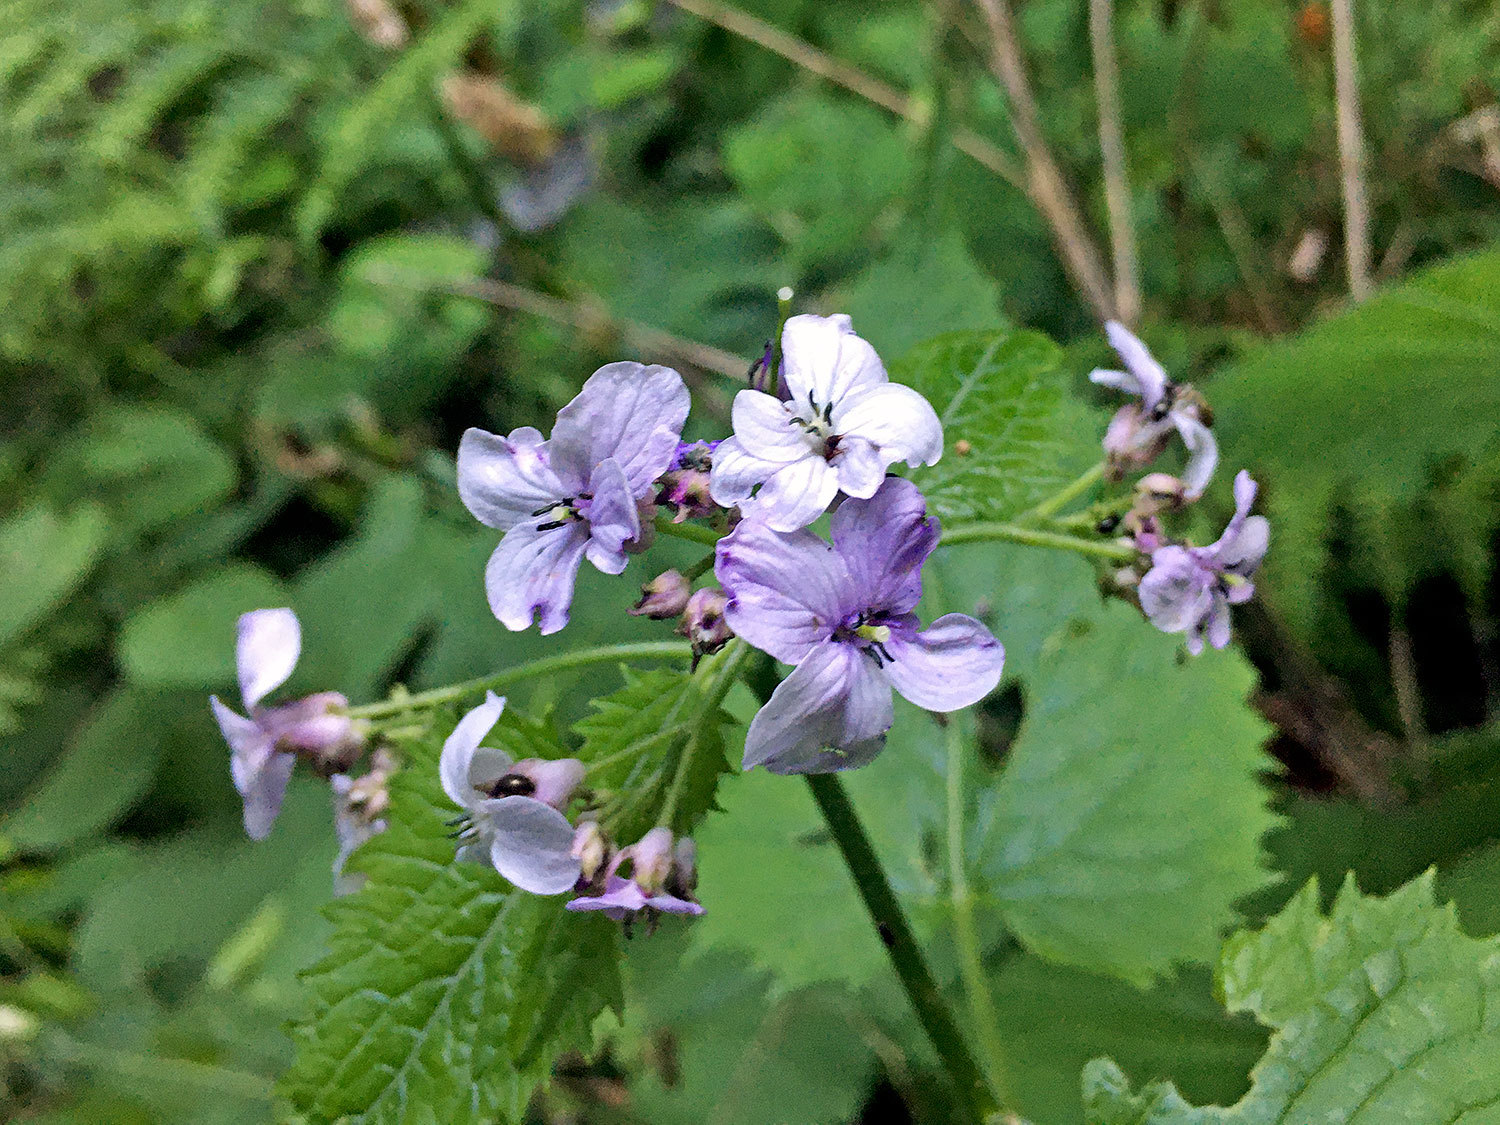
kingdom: Plantae
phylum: Tracheophyta
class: Magnoliopsida
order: Brassicales
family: Brassicaceae
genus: Lunaria
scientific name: Lunaria rediviva
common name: Perennial honesty
